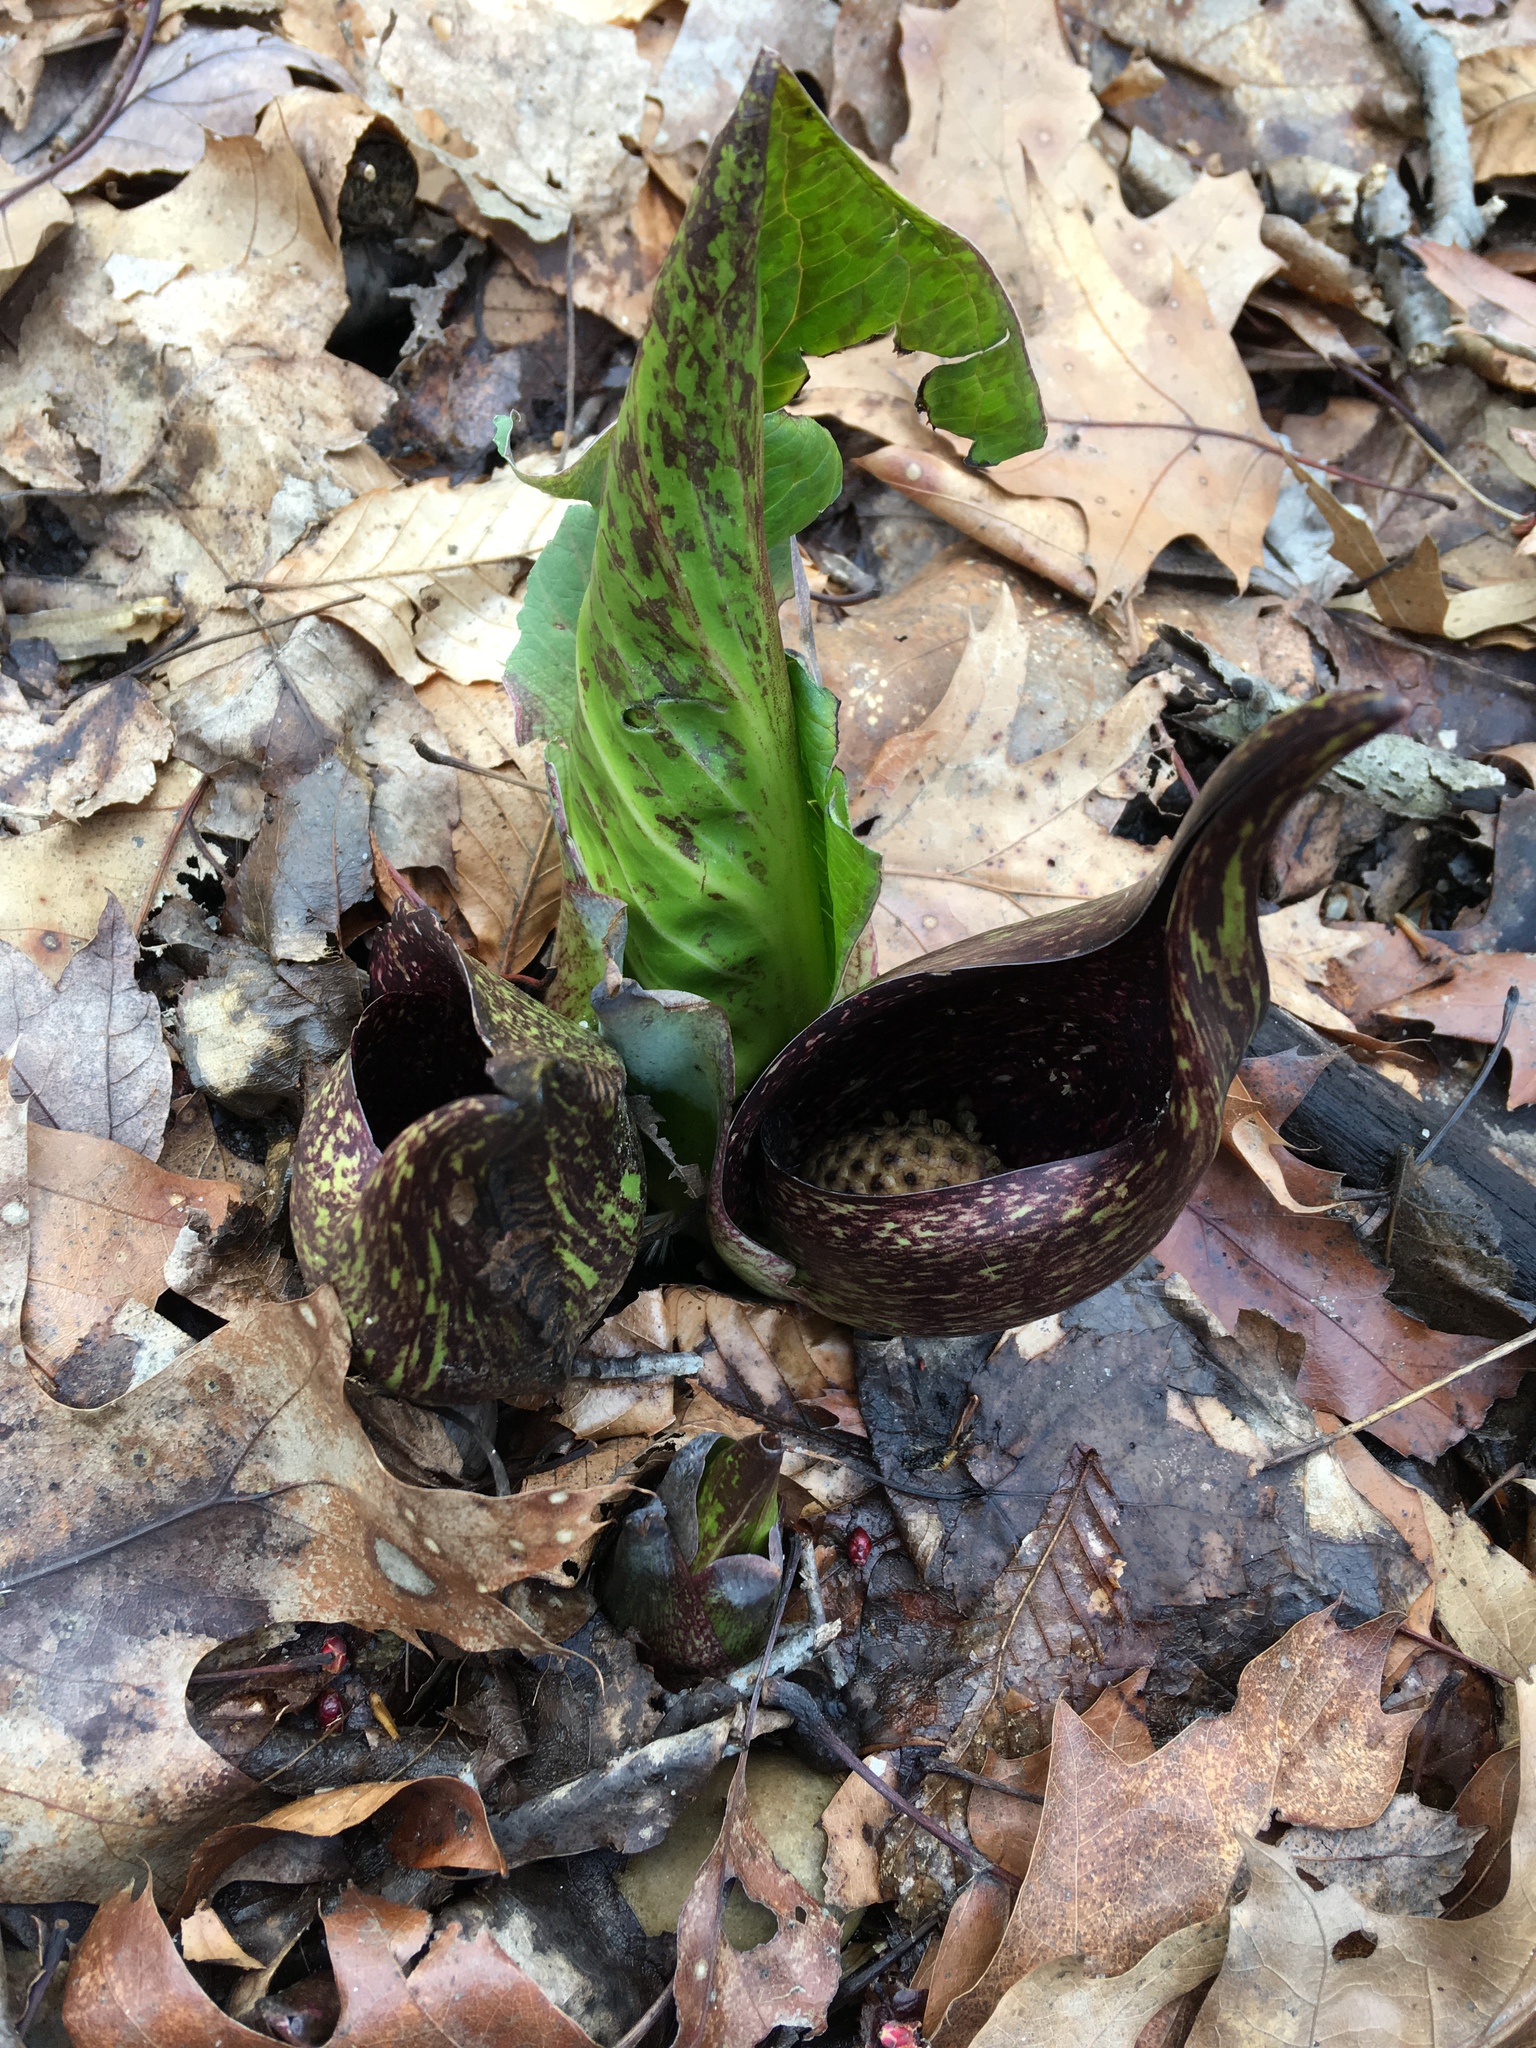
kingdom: Plantae
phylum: Tracheophyta
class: Liliopsida
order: Alismatales
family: Araceae
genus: Symplocarpus
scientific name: Symplocarpus foetidus
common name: Eastern skunk cabbage
